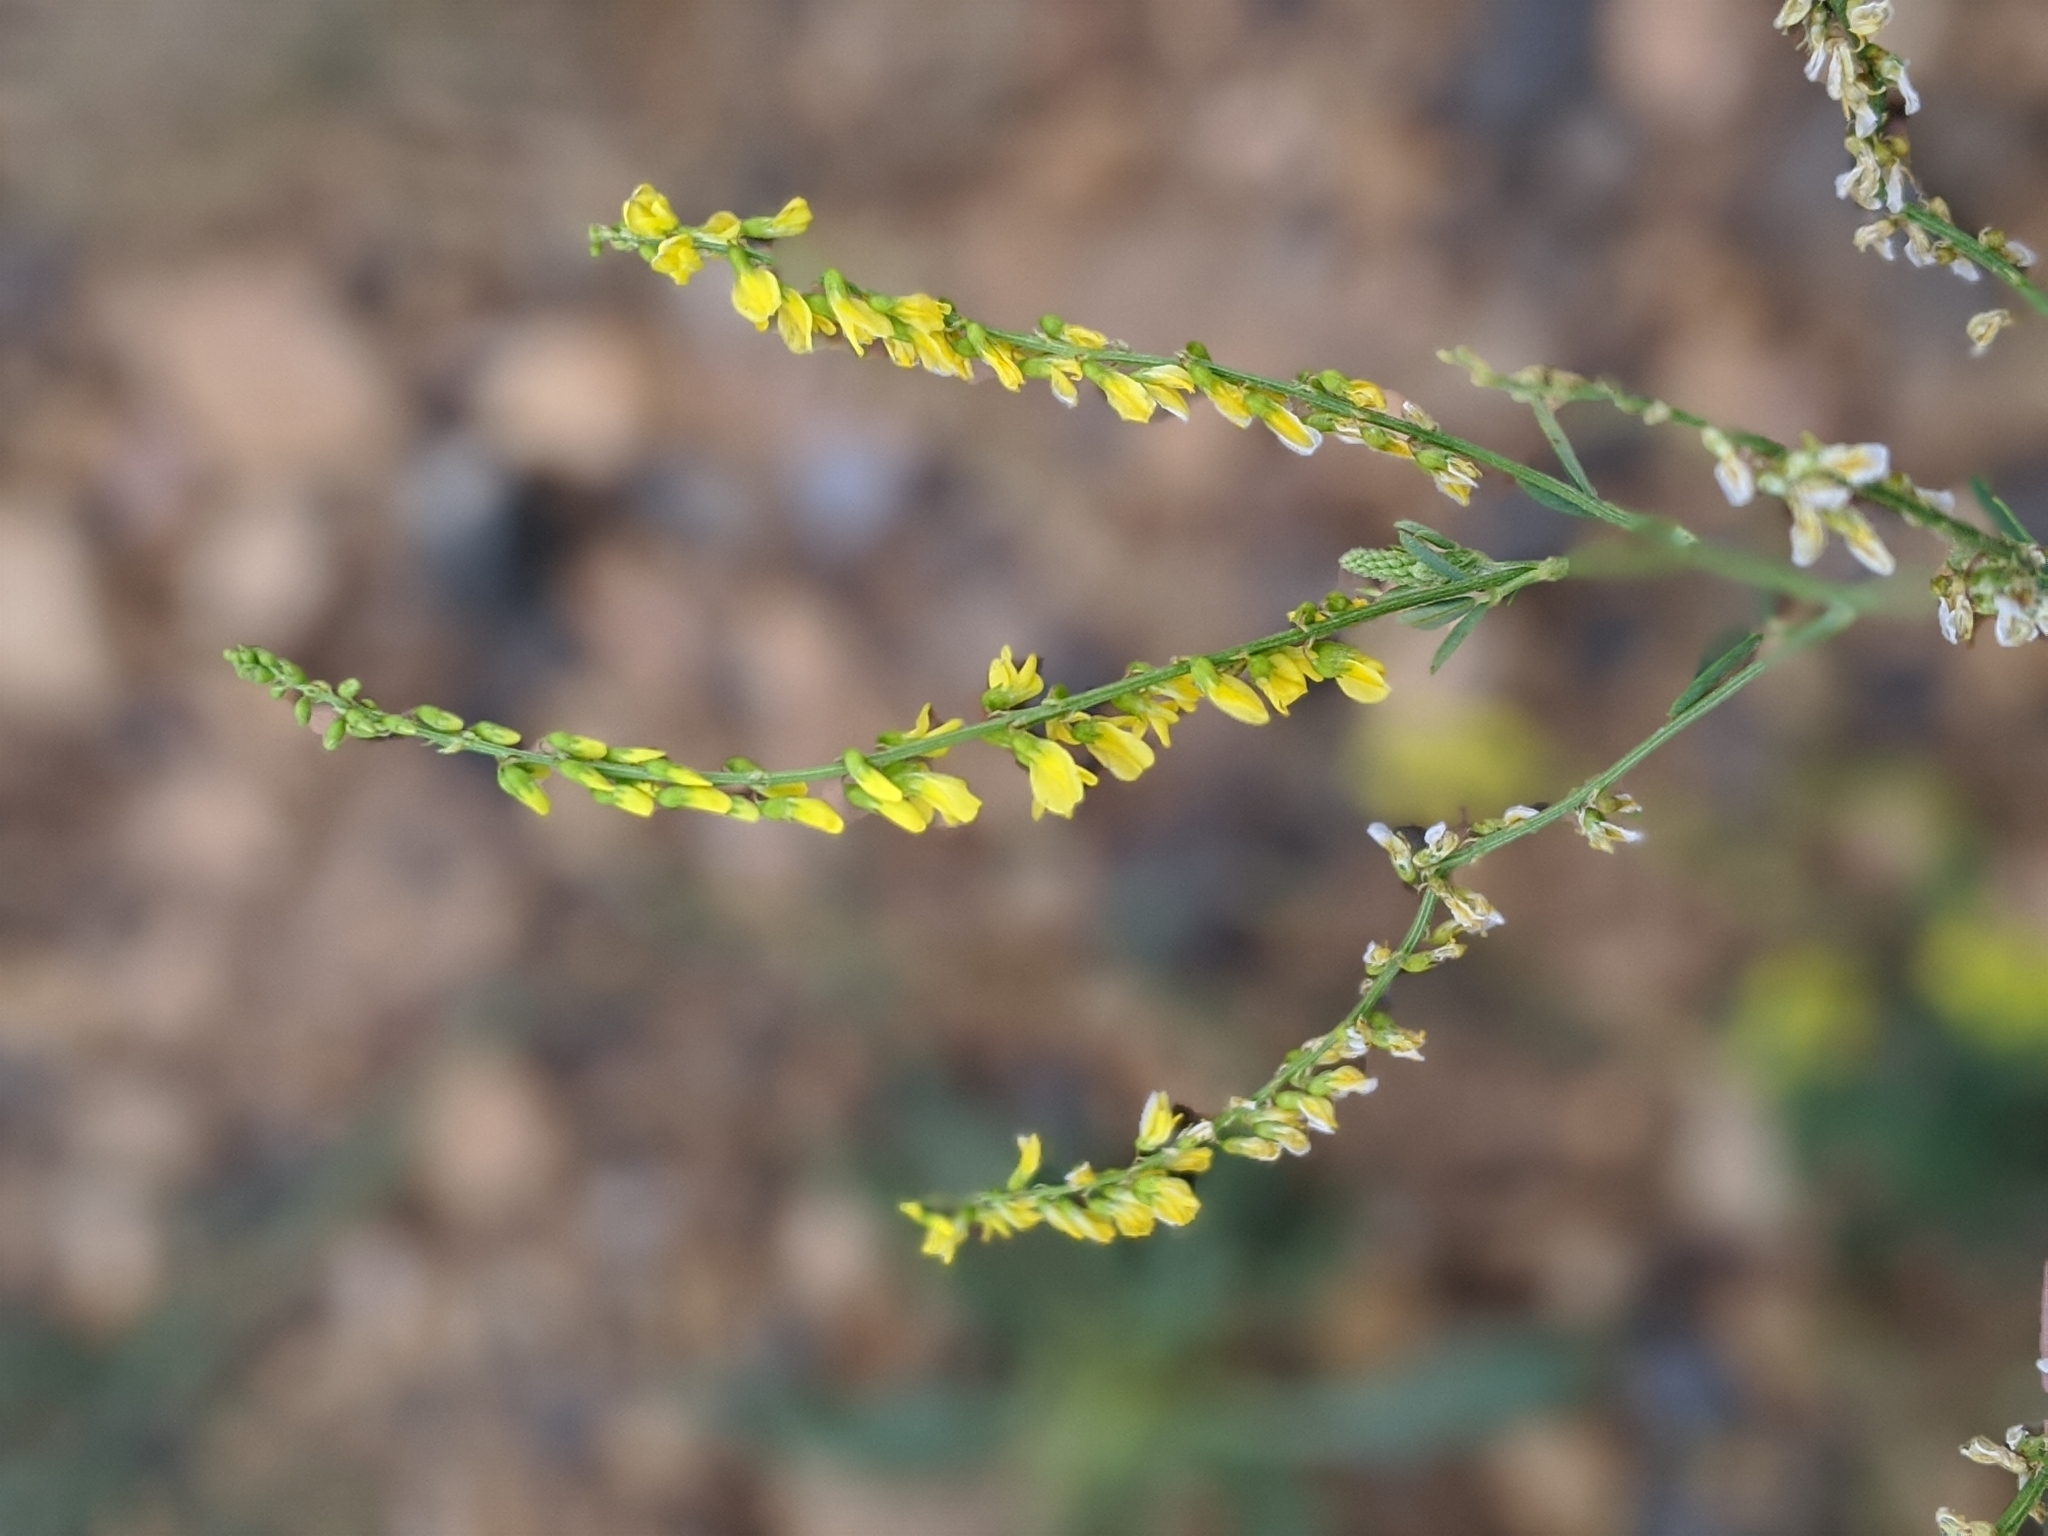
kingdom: Plantae
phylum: Tracheophyta
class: Magnoliopsida
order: Fabales
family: Fabaceae
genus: Melilotus
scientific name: Melilotus officinalis
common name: Sweetclover
